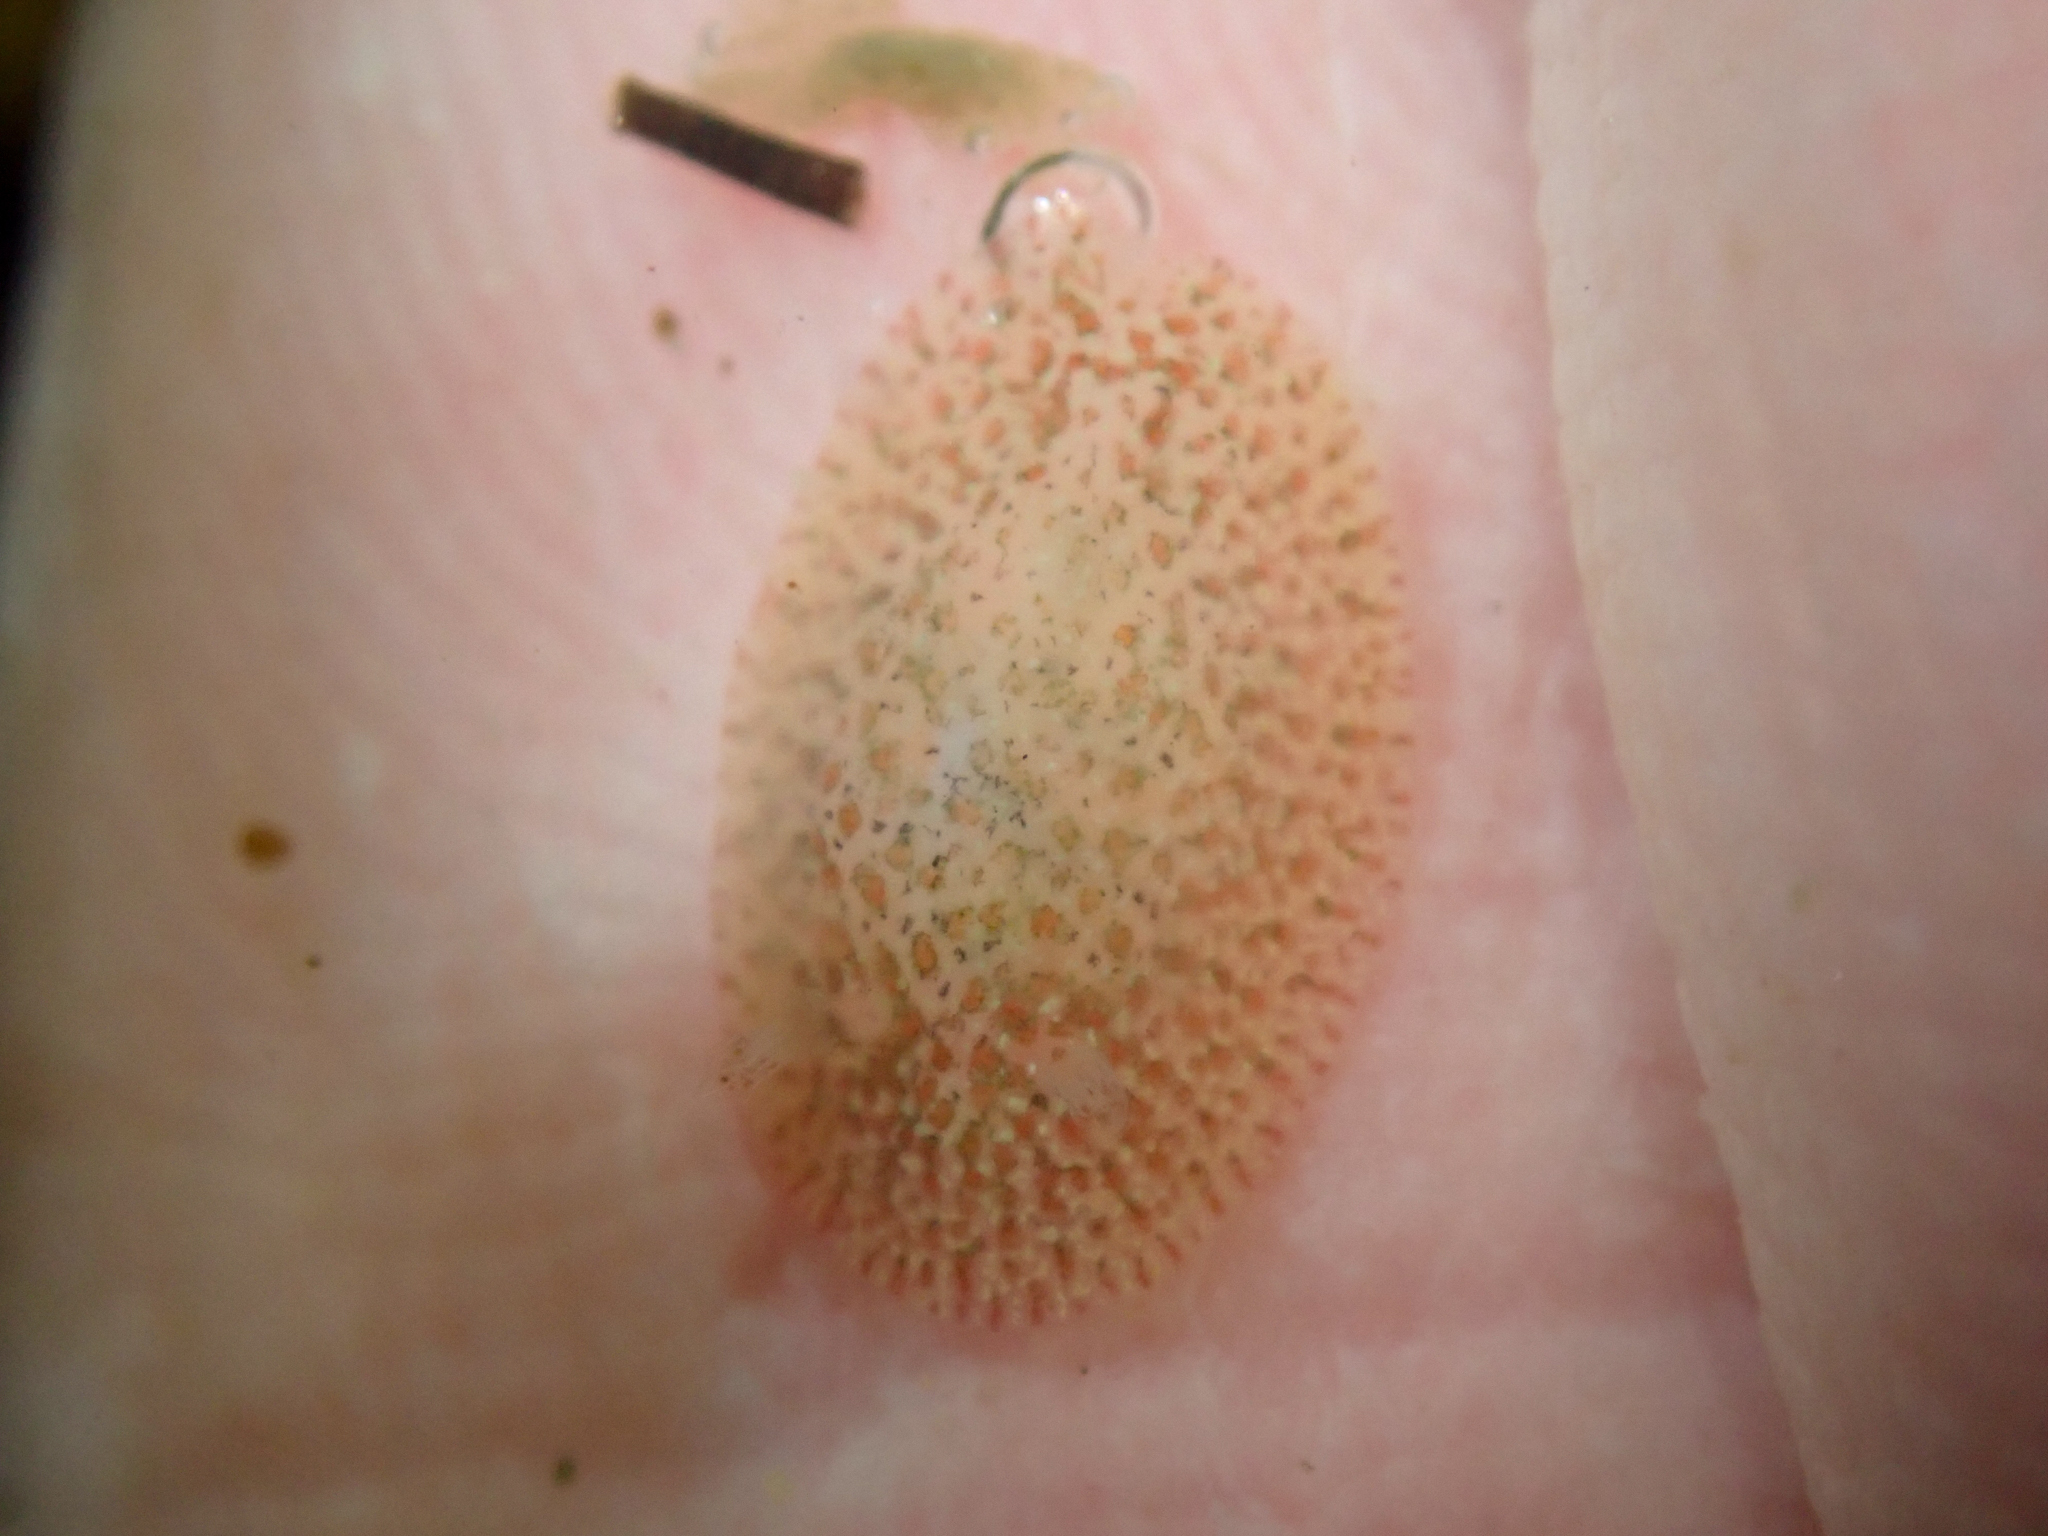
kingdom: Animalia
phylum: Mollusca
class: Gastropoda
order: Nudibranchia
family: Corambidae
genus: Corambe
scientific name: Corambe pacifica
